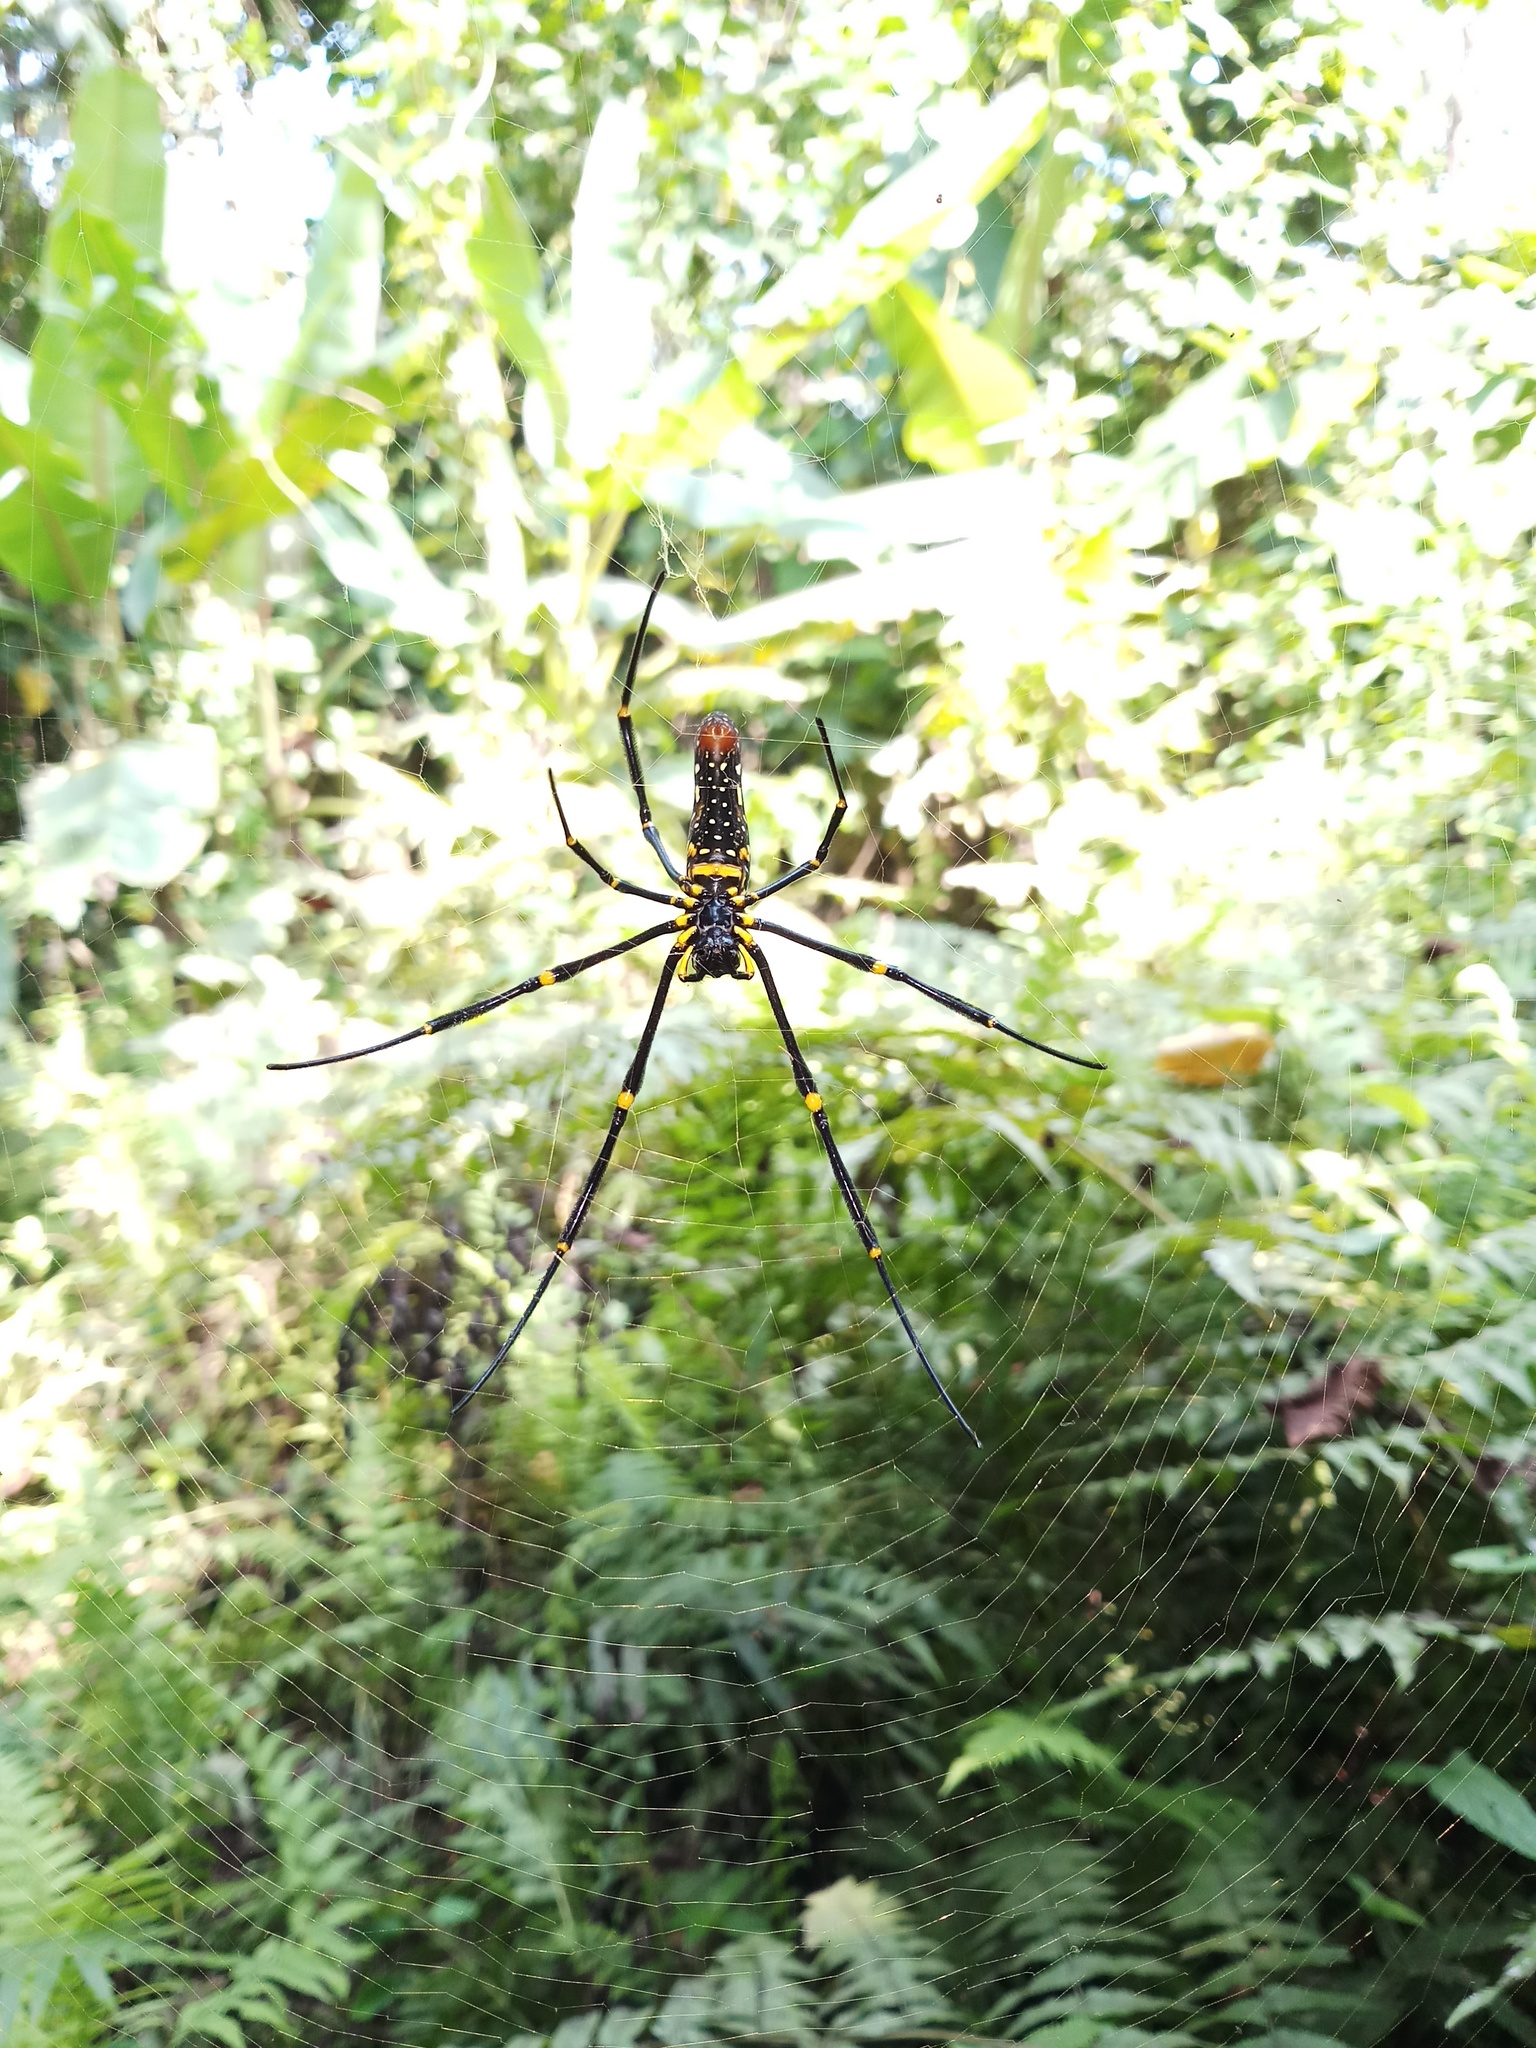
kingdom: Animalia
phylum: Arthropoda
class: Arachnida
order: Araneae
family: Araneidae
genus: Nephila
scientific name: Nephila pilipes
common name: Giant golden orb weaver
